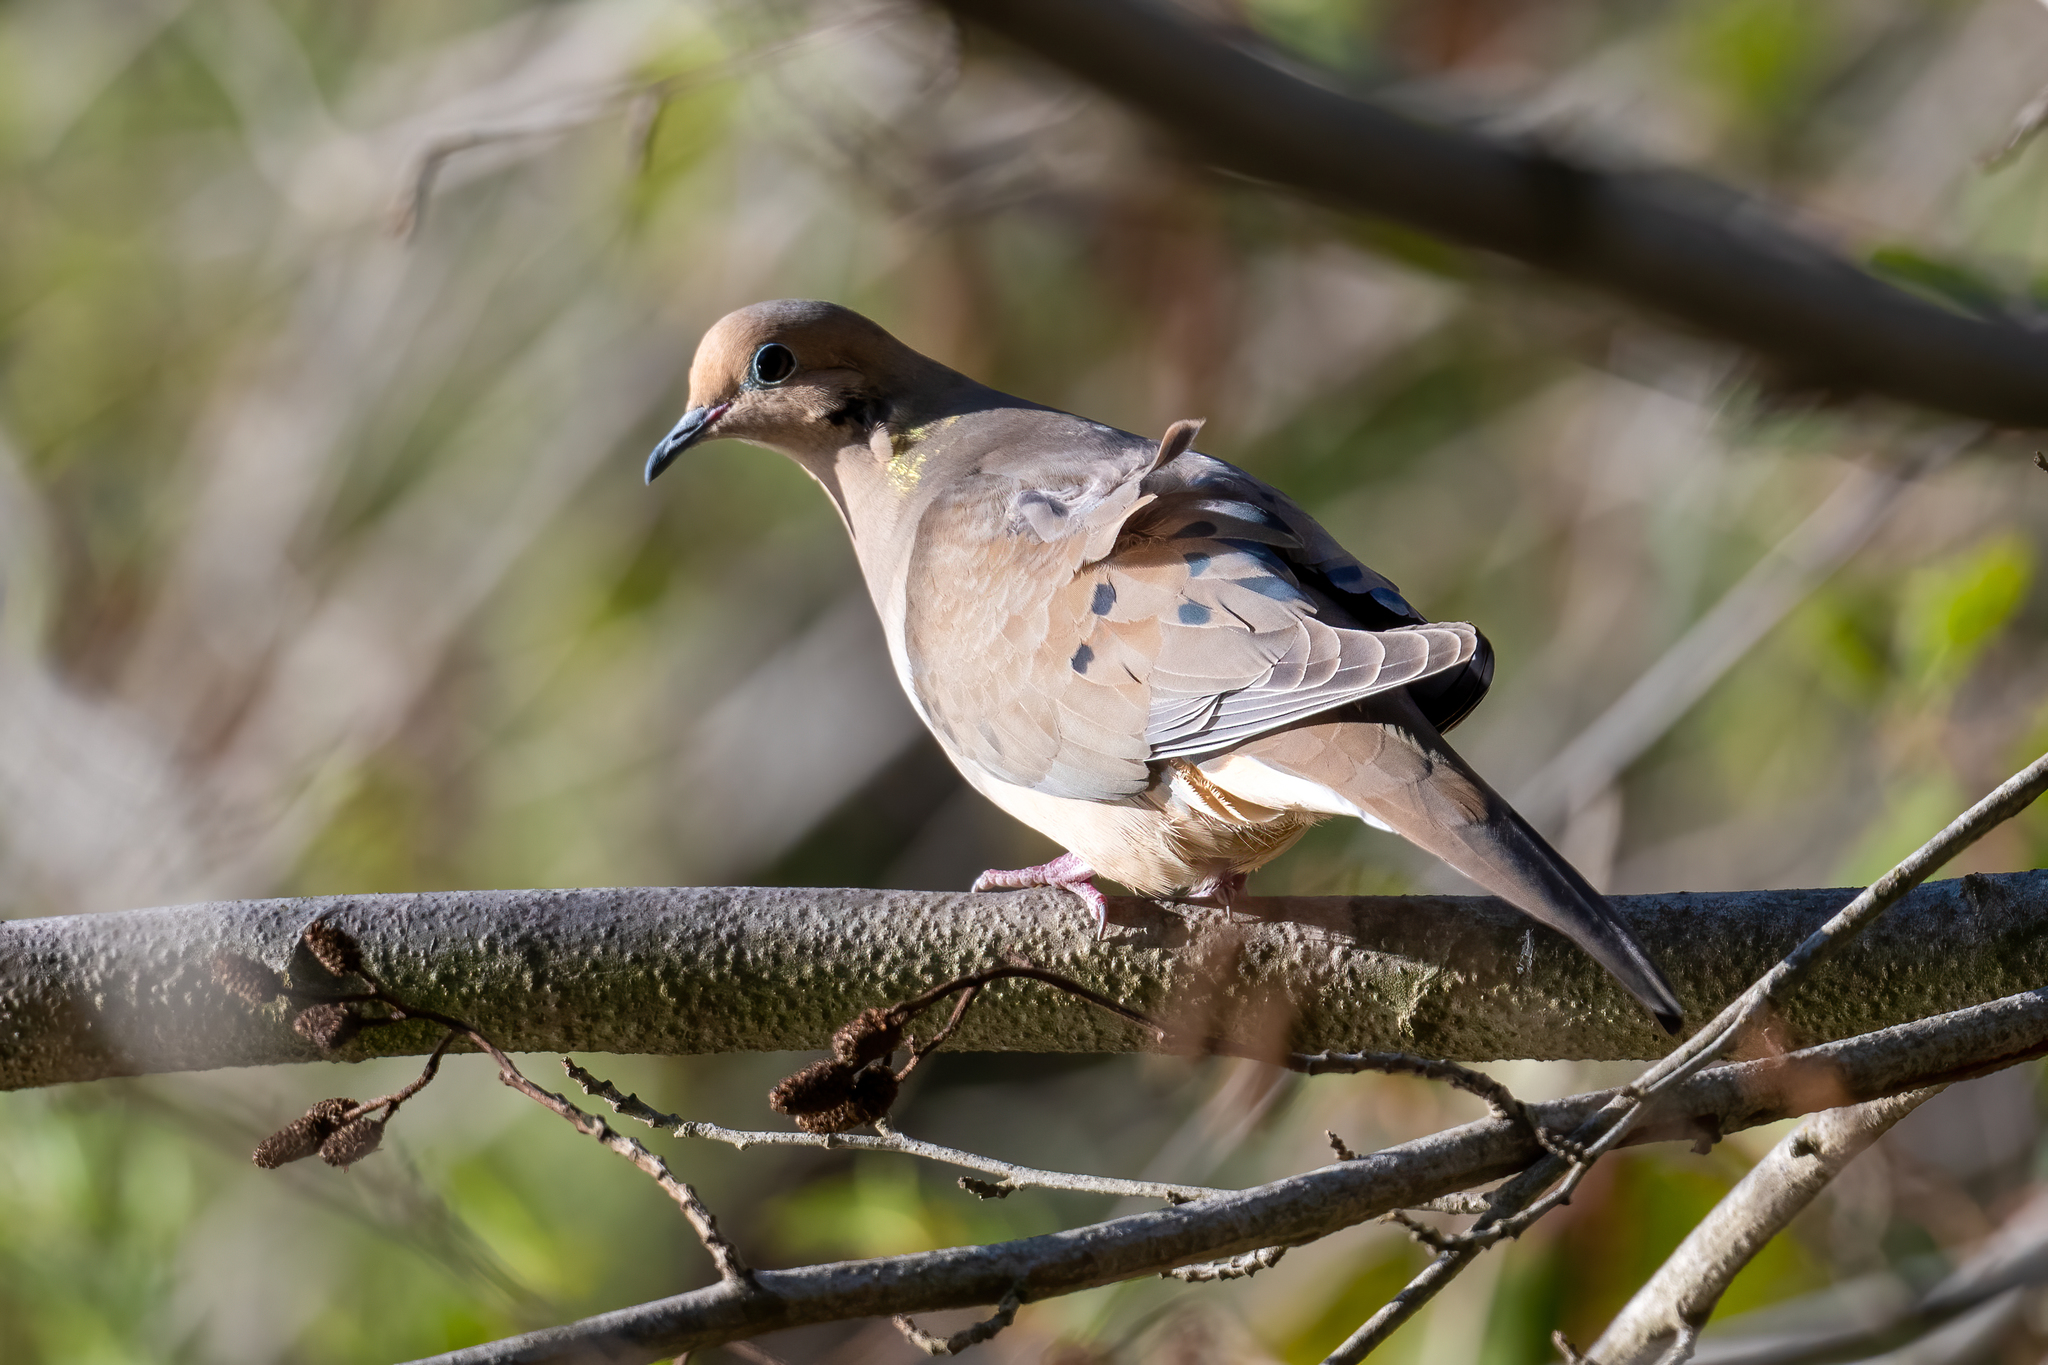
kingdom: Animalia
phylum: Chordata
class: Aves
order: Columbiformes
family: Columbidae
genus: Zenaida
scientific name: Zenaida macroura
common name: Mourning dove
